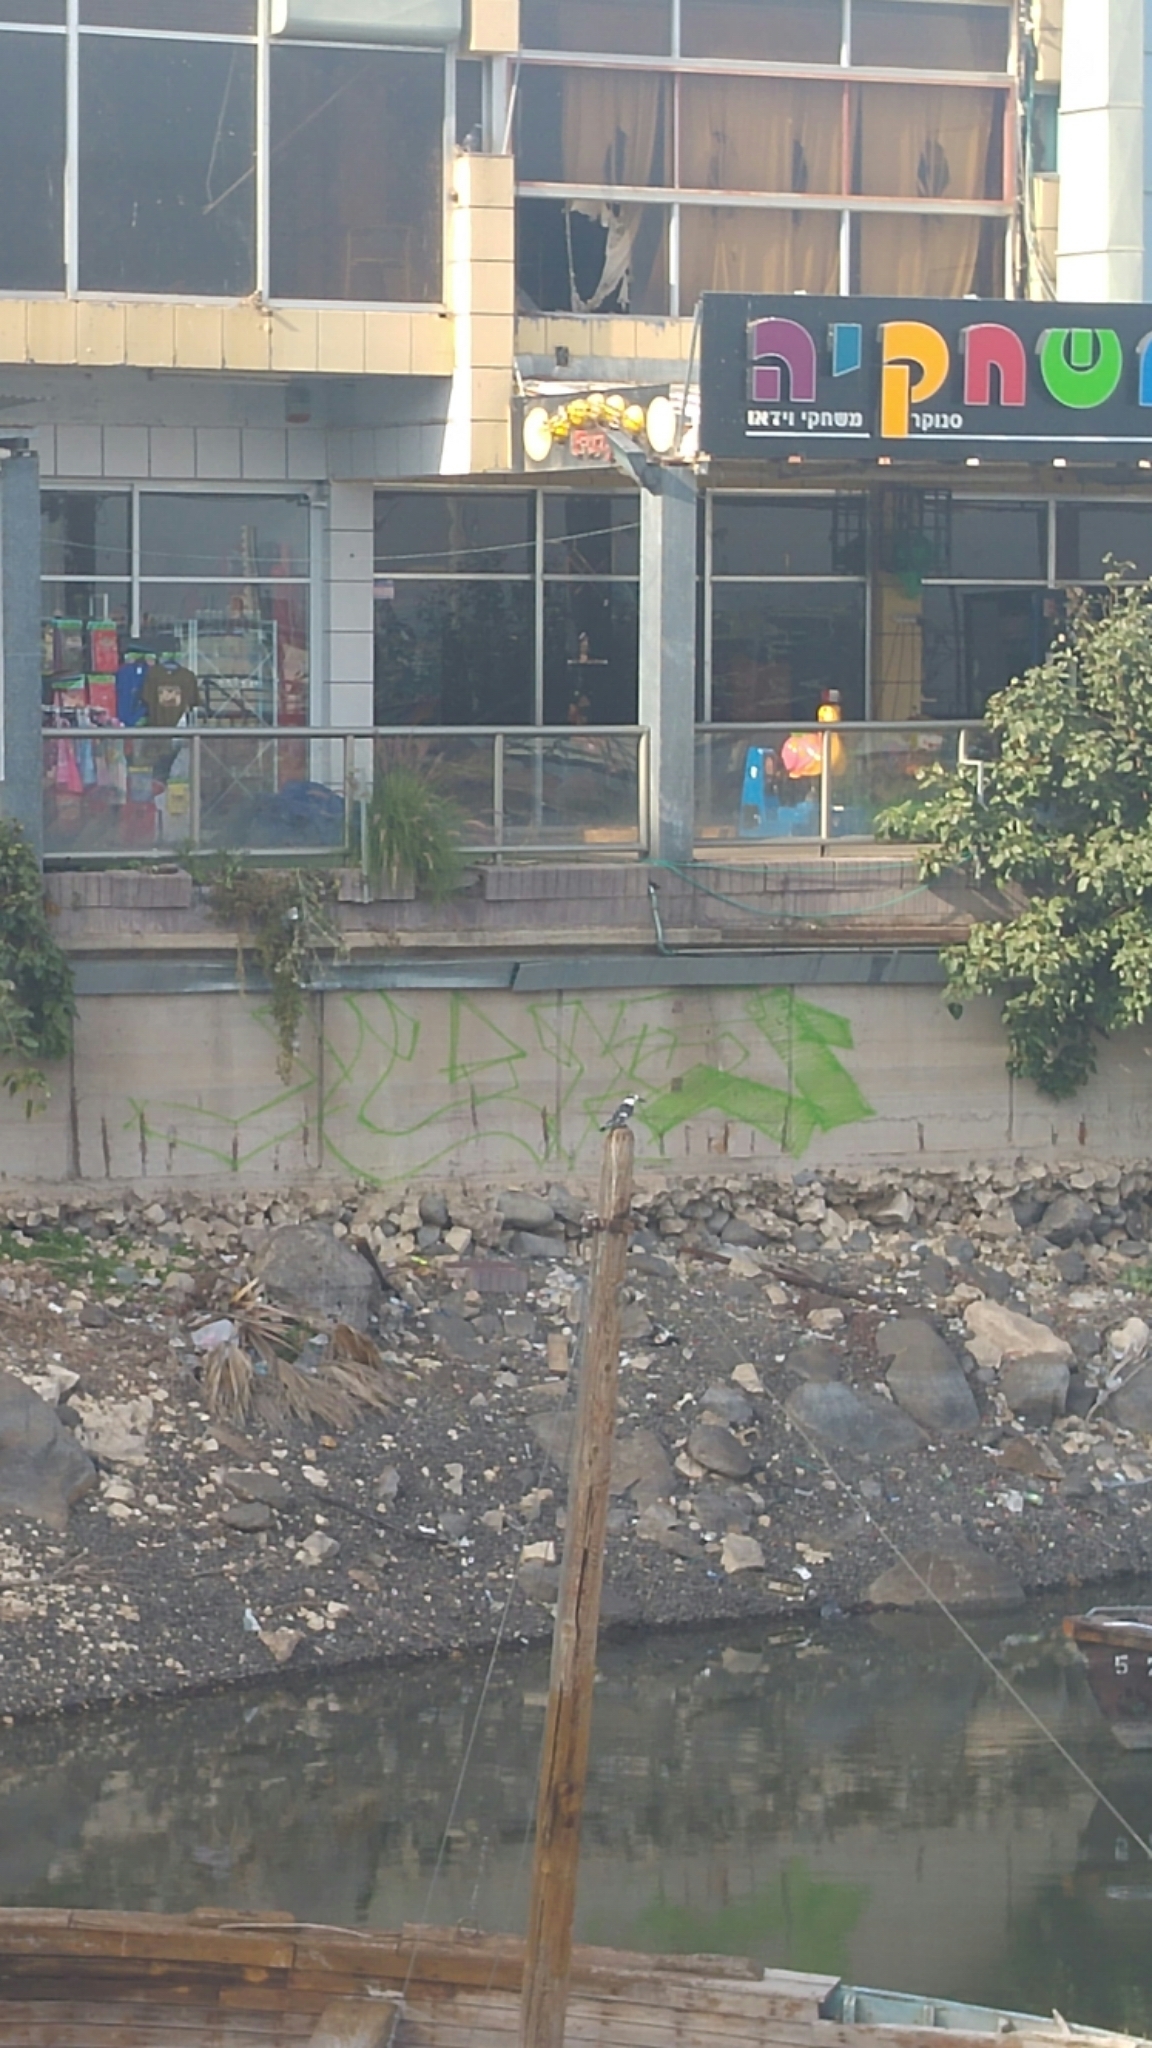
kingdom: Animalia
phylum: Chordata
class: Aves
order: Coraciiformes
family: Alcedinidae
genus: Ceryle
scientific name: Ceryle rudis
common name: Pied kingfisher
